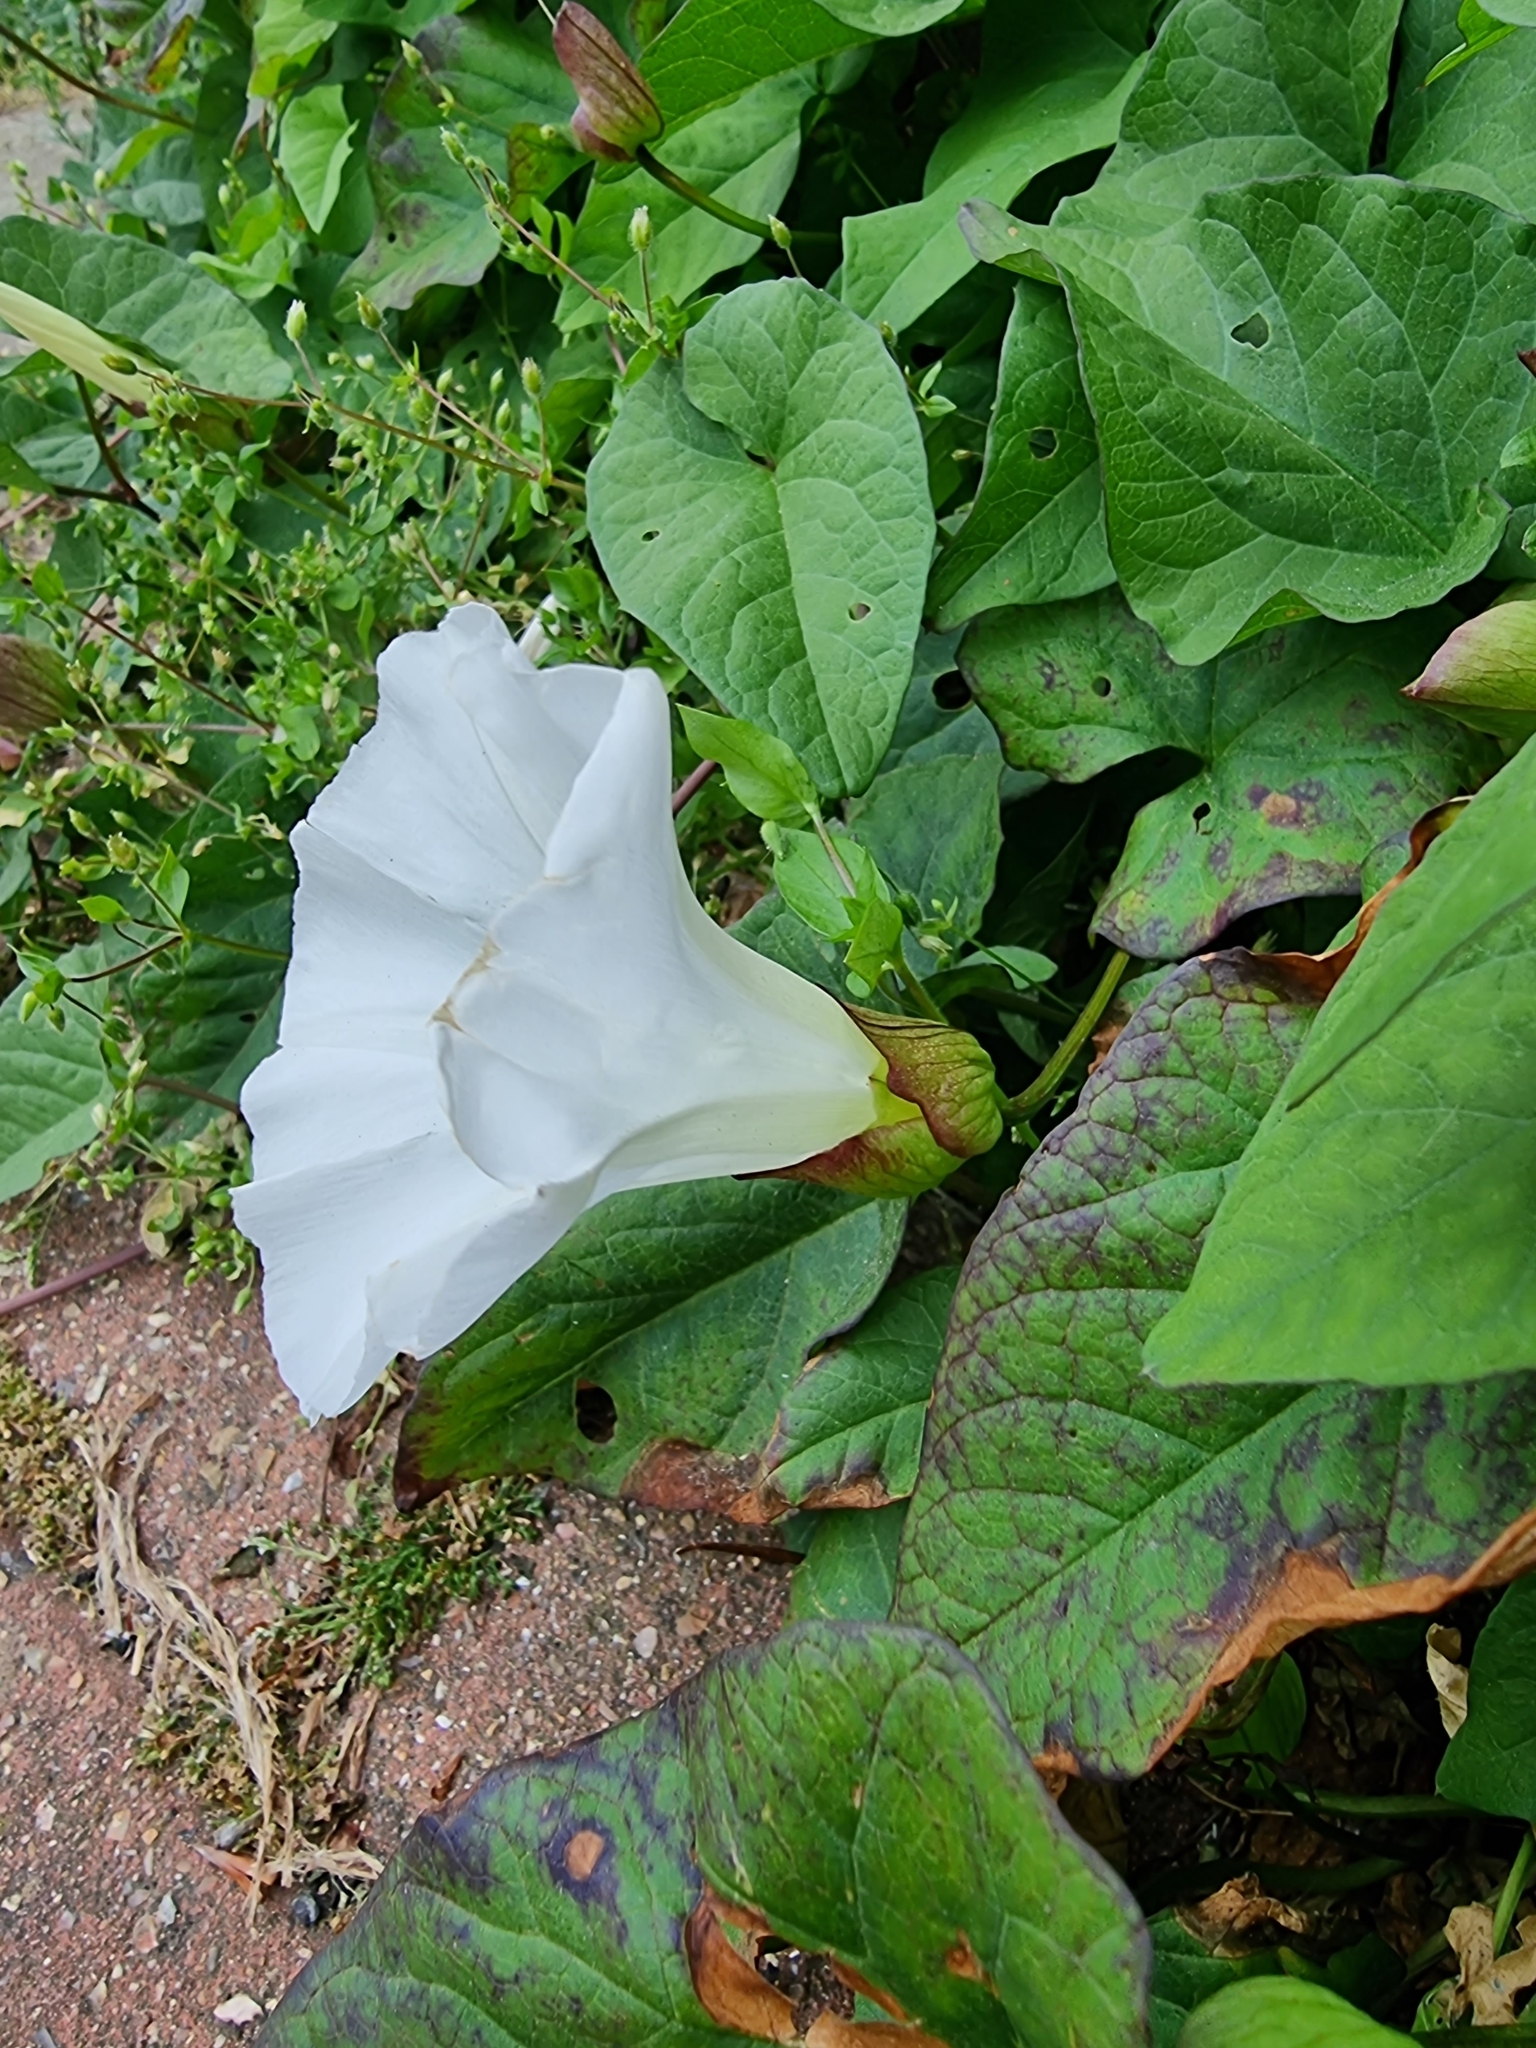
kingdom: Plantae
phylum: Tracheophyta
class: Magnoliopsida
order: Solanales
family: Convolvulaceae
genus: Calystegia
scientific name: Calystegia lucana
